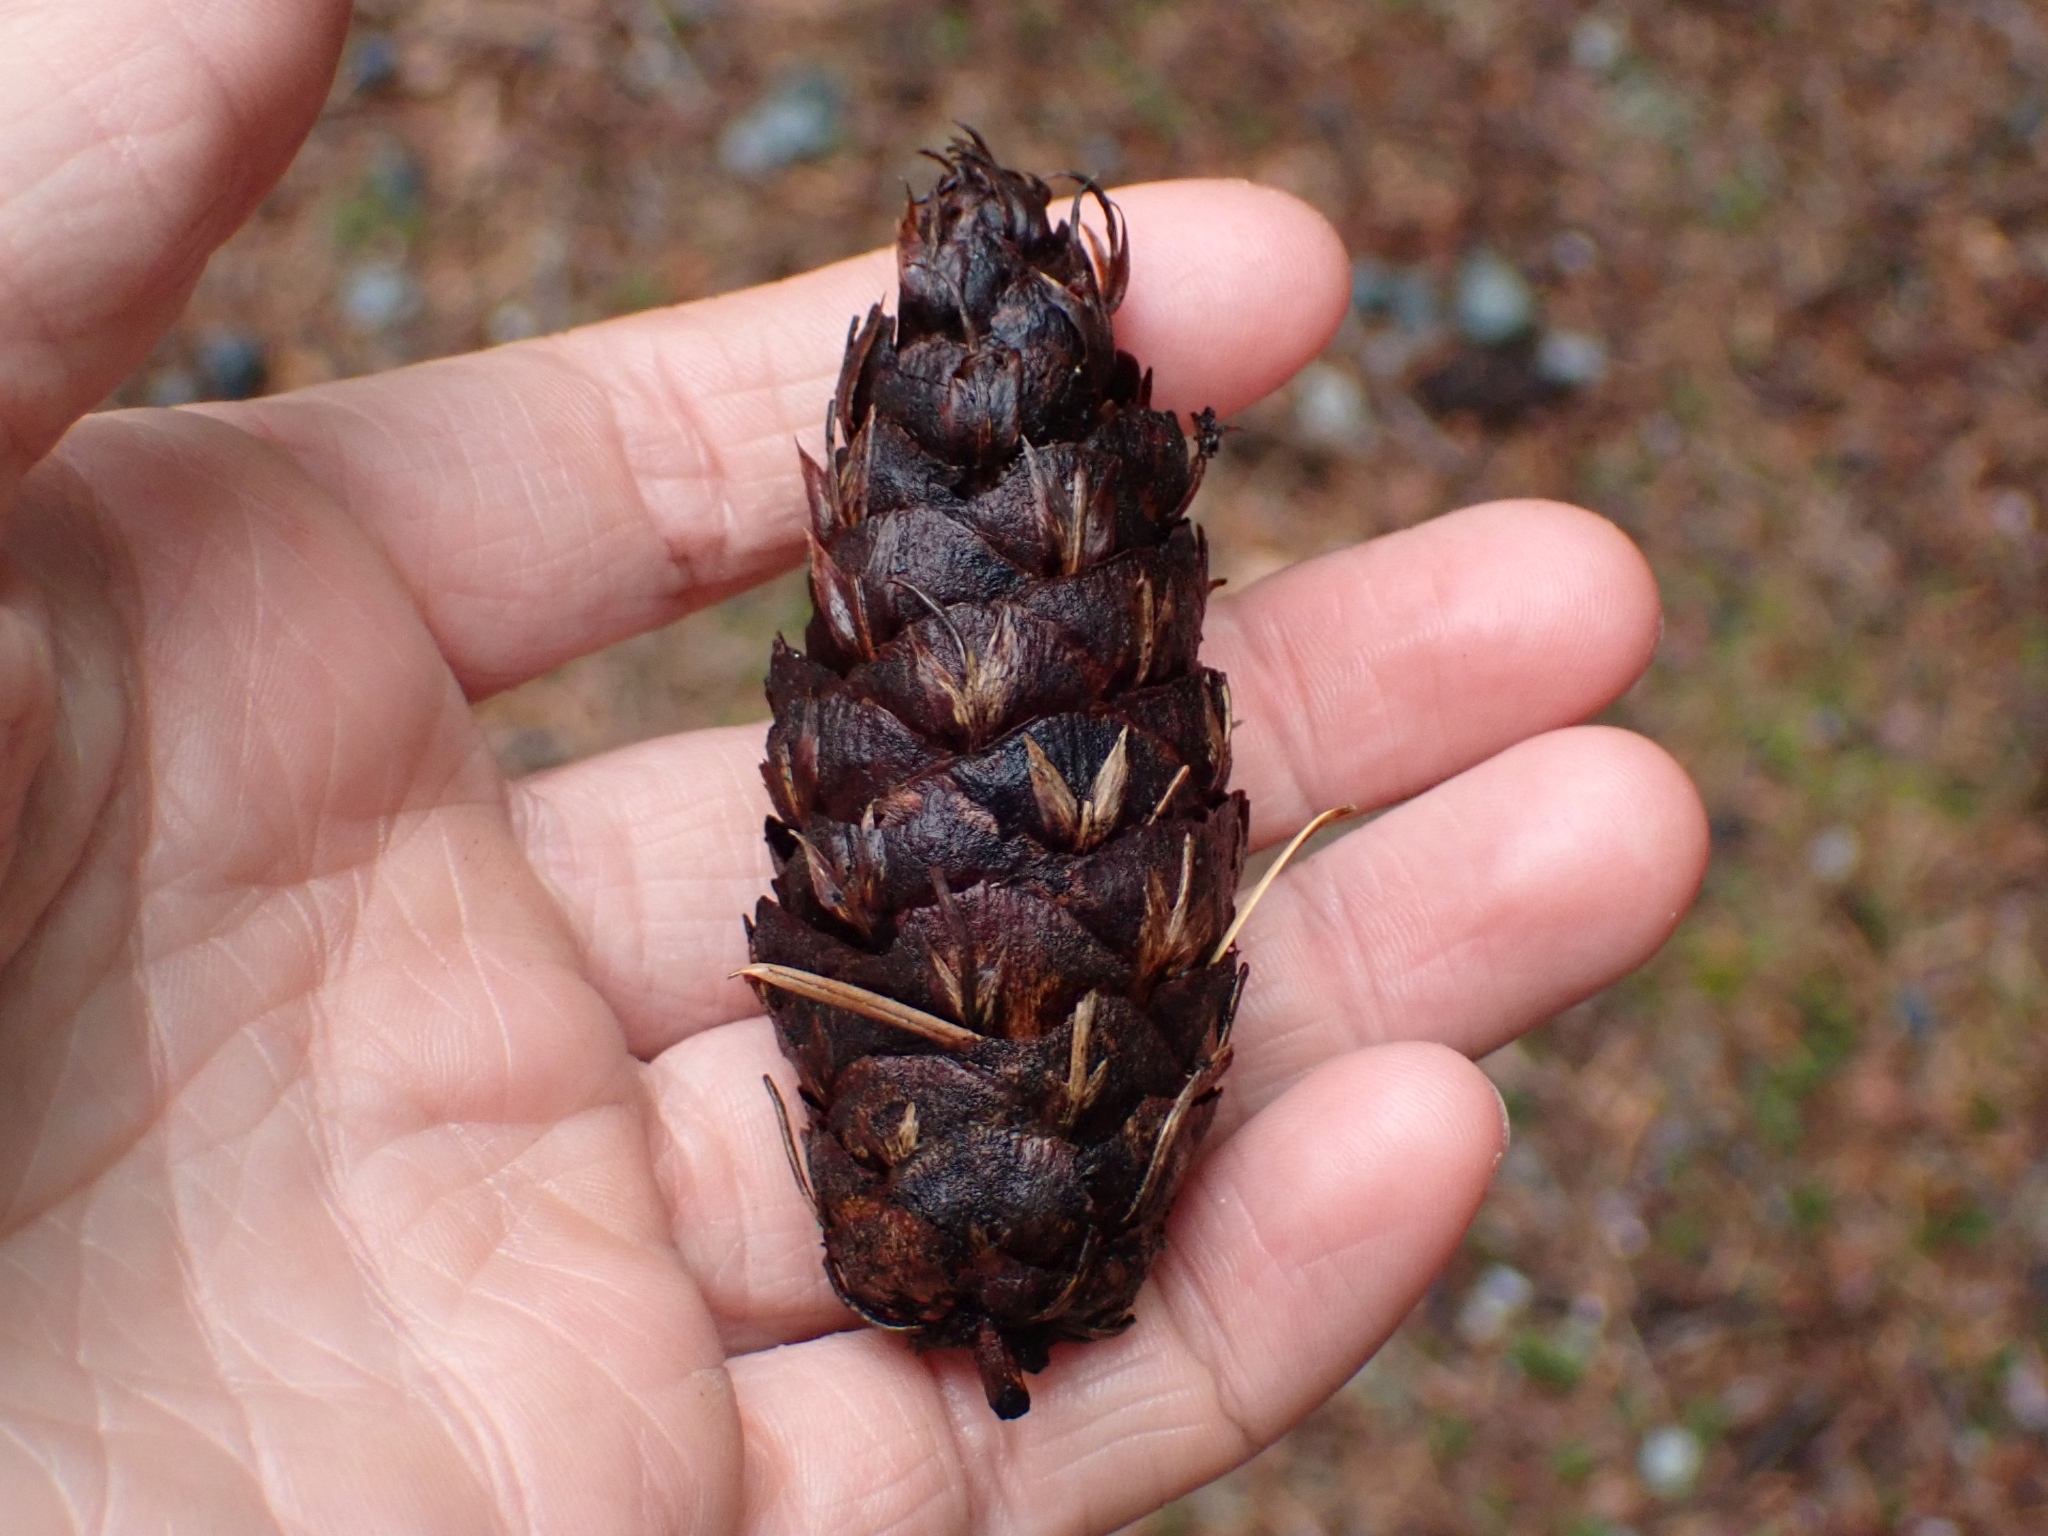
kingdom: Plantae
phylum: Tracheophyta
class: Pinopsida
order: Pinales
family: Pinaceae
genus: Pseudotsuga
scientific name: Pseudotsuga menziesii
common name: Douglas fir
